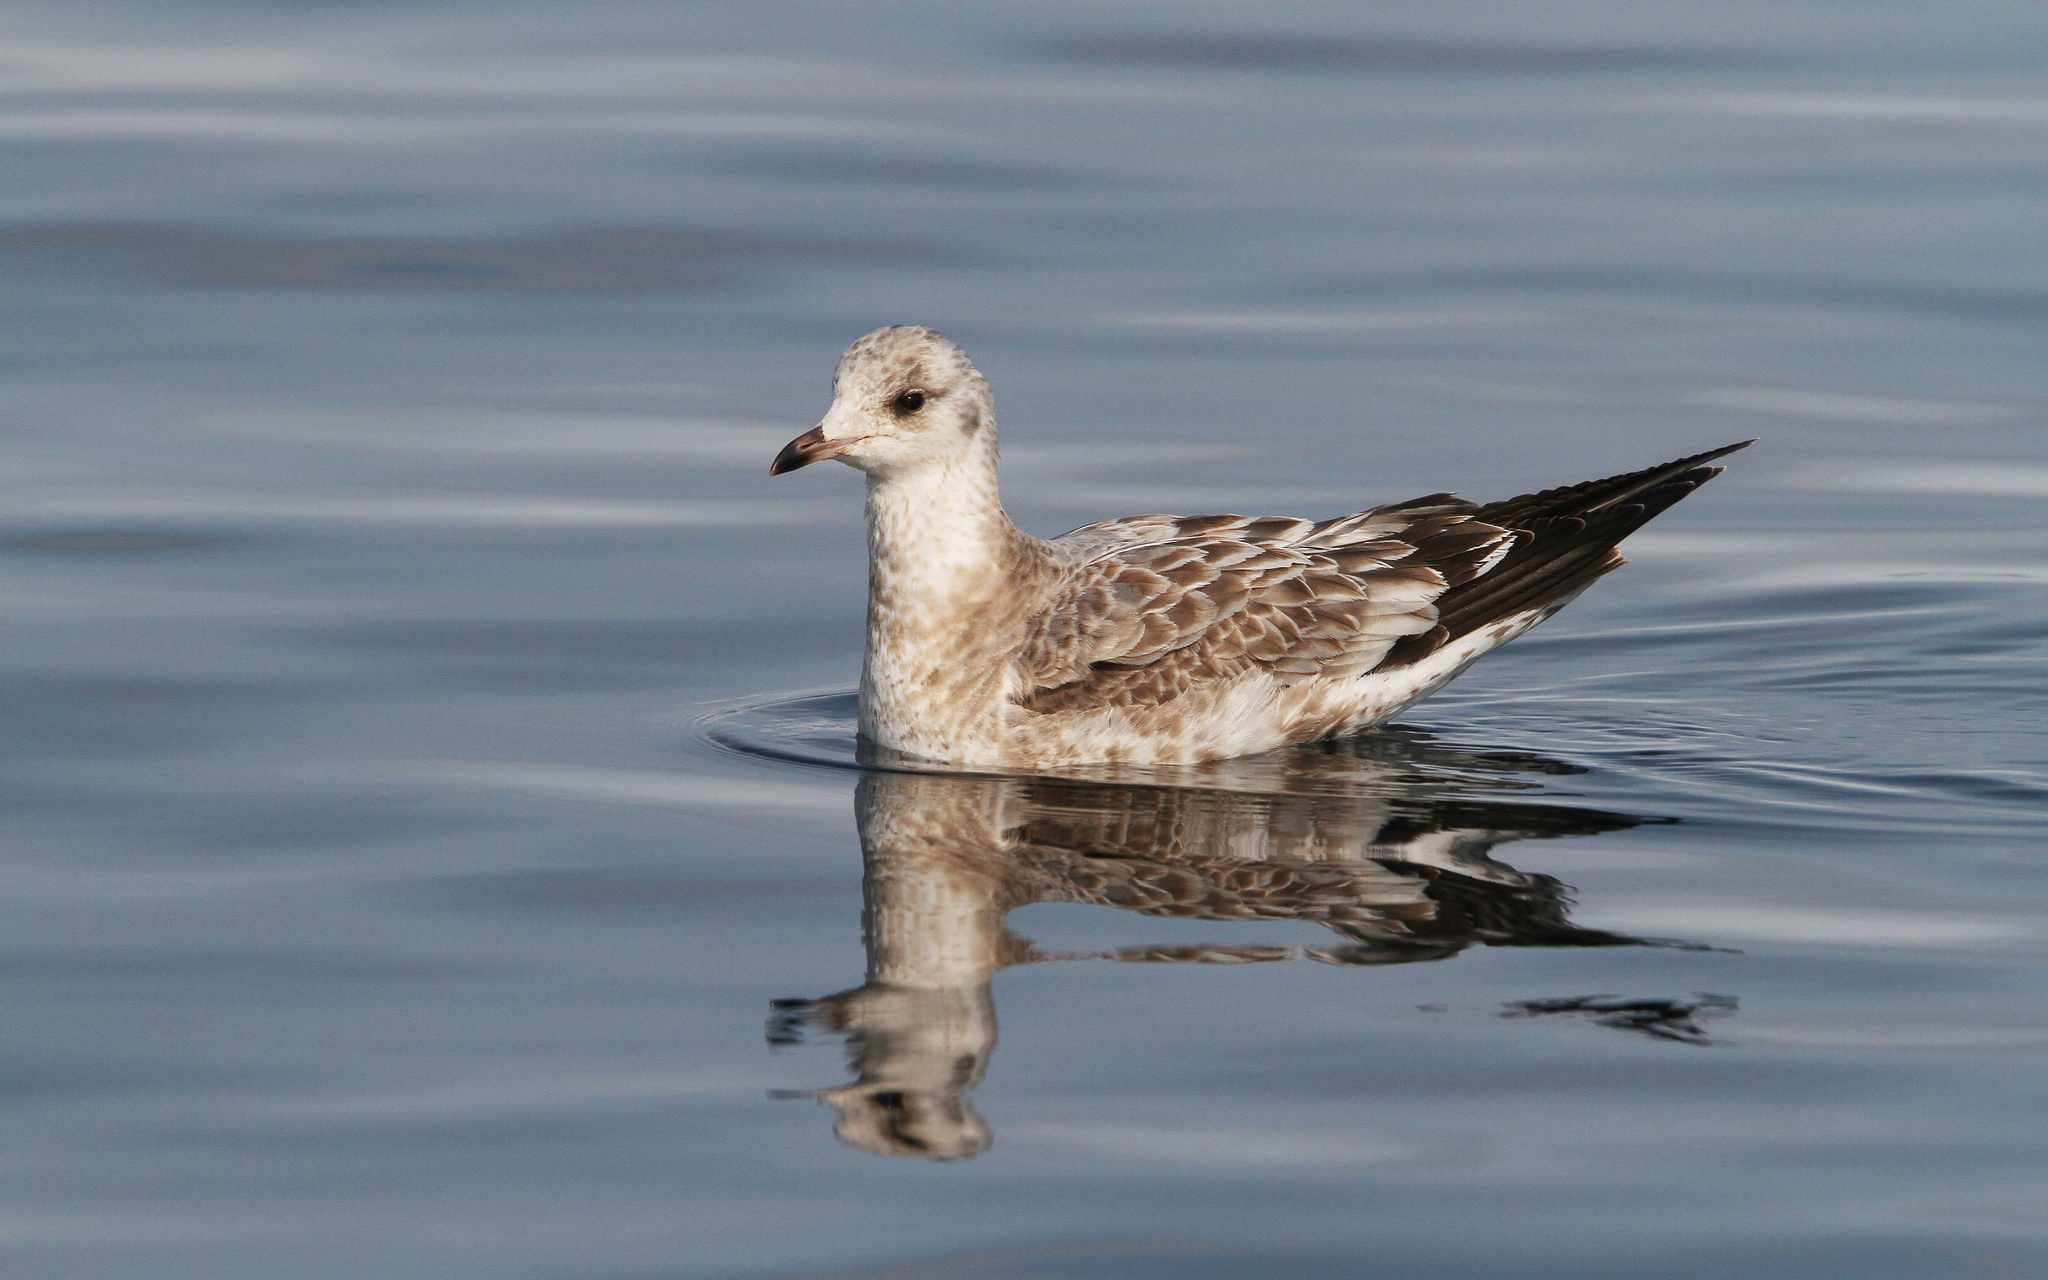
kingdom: Animalia
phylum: Chordata
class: Aves
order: Charadriiformes
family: Laridae
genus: Larus
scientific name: Larus canus
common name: Mew gull
